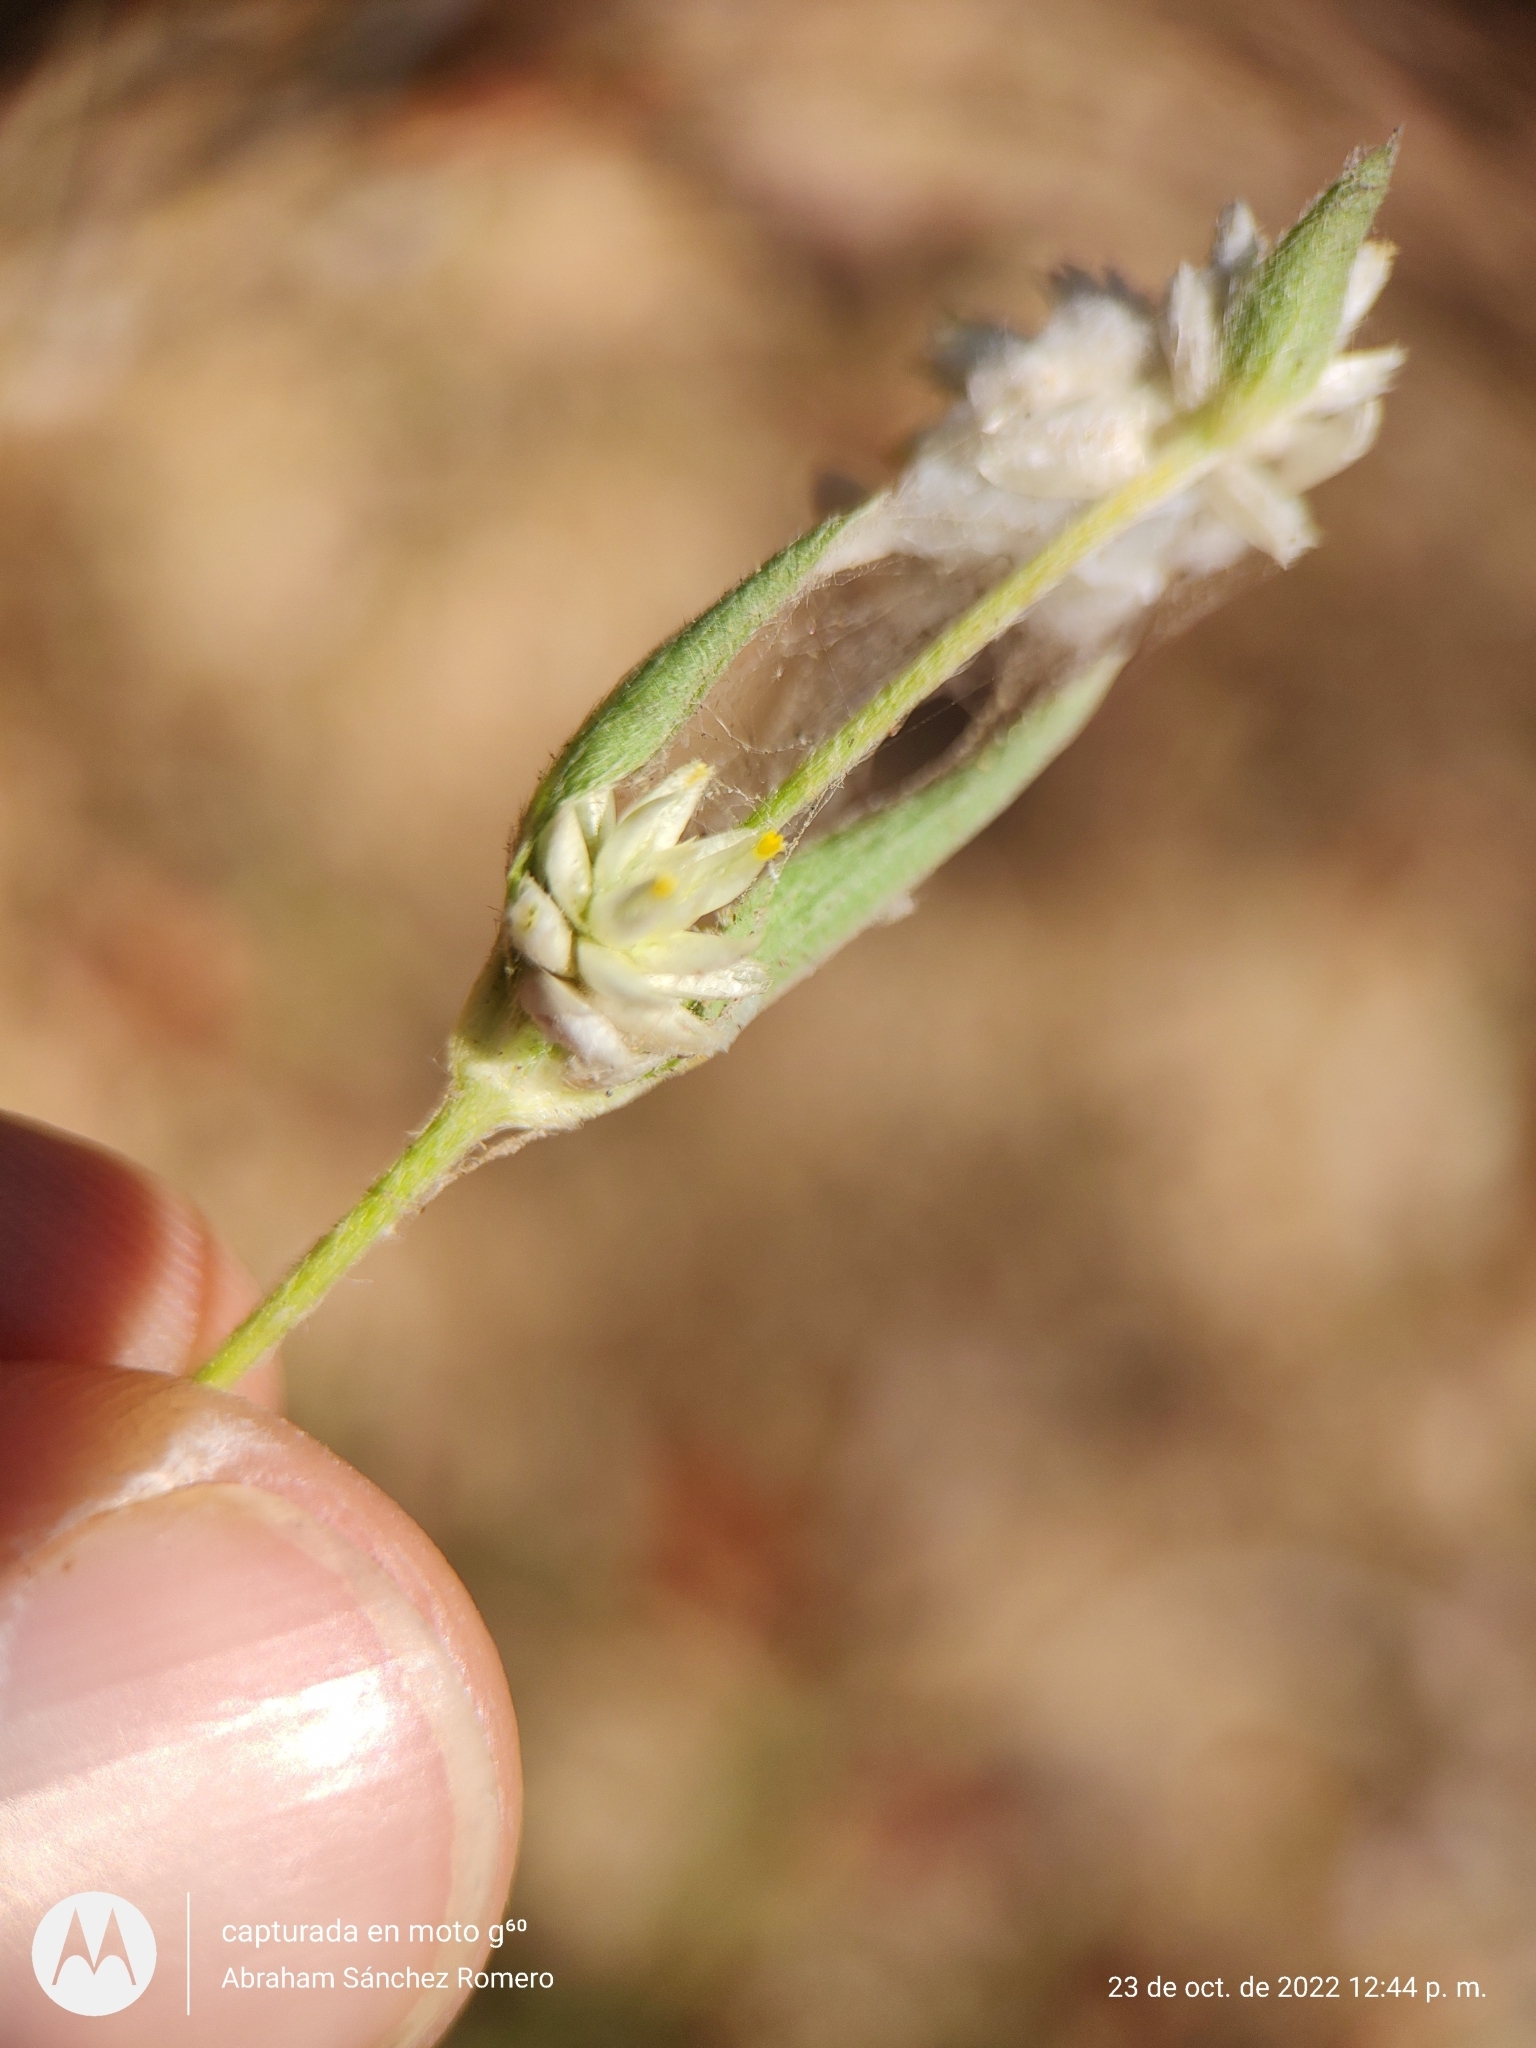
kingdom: Plantae
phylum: Tracheophyta
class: Magnoliopsida
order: Caryophyllales
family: Amaranthaceae
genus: Gomphrena
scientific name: Gomphrena sonorae
